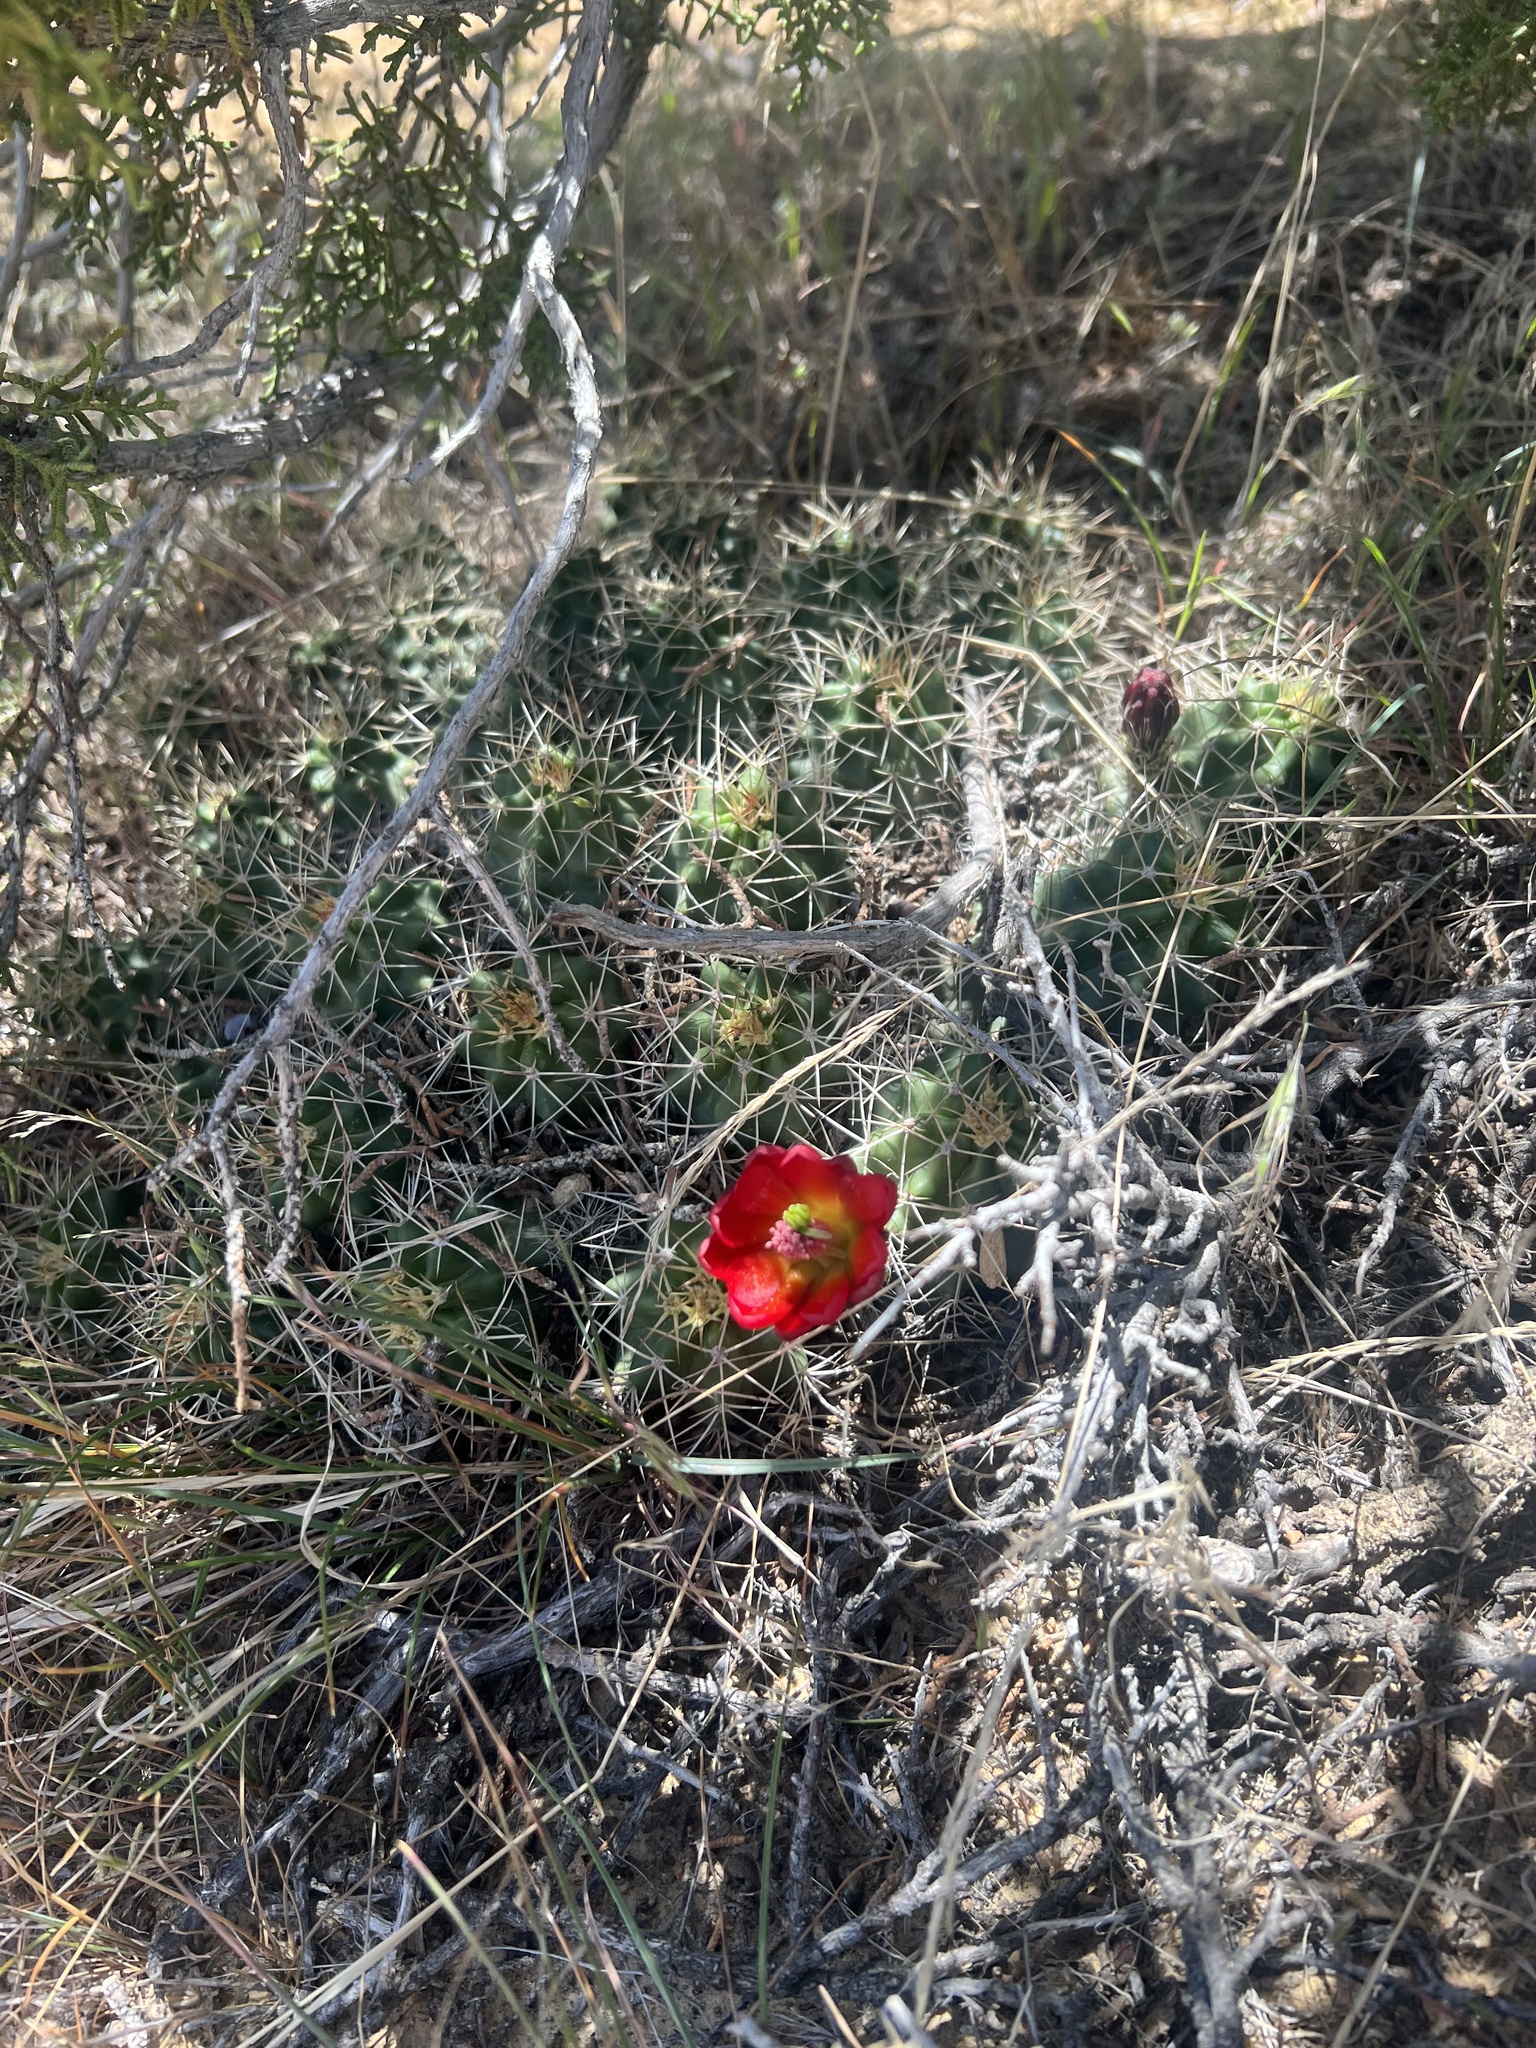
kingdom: Plantae
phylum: Tracheophyta
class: Magnoliopsida
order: Caryophyllales
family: Cactaceae
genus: Echinocereus
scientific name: Echinocereus triglochidiatus
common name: Claretcup hedgehog
